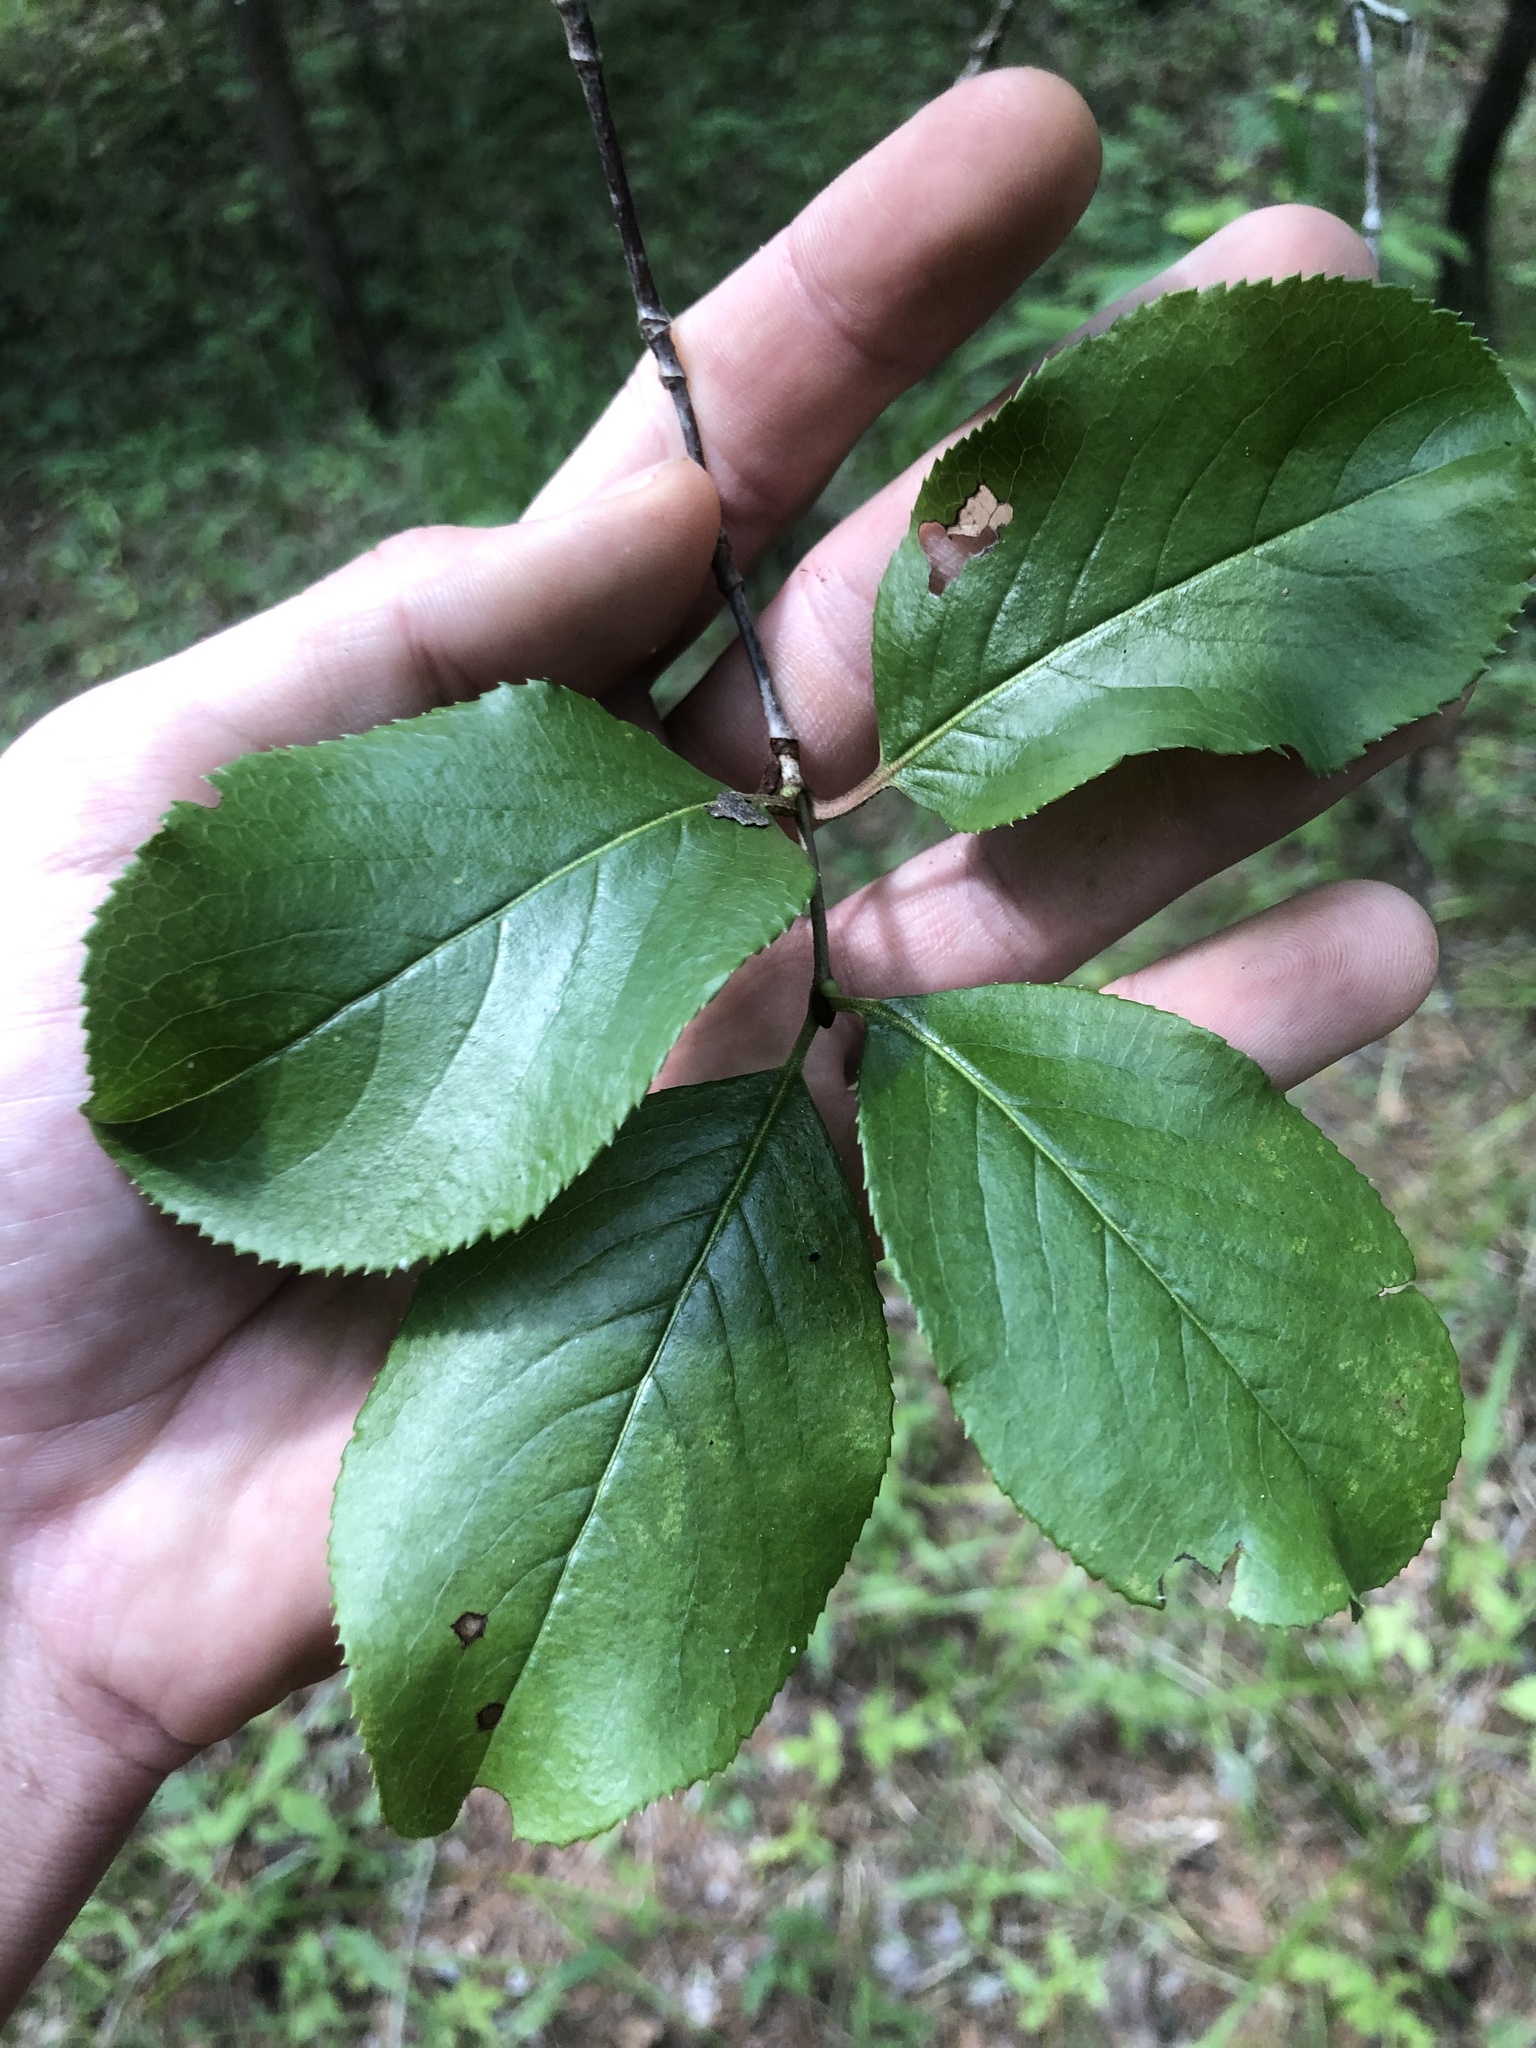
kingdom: Plantae
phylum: Tracheophyta
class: Magnoliopsida
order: Dipsacales
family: Viburnaceae
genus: Viburnum
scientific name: Viburnum rufidulum
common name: Blue haw
